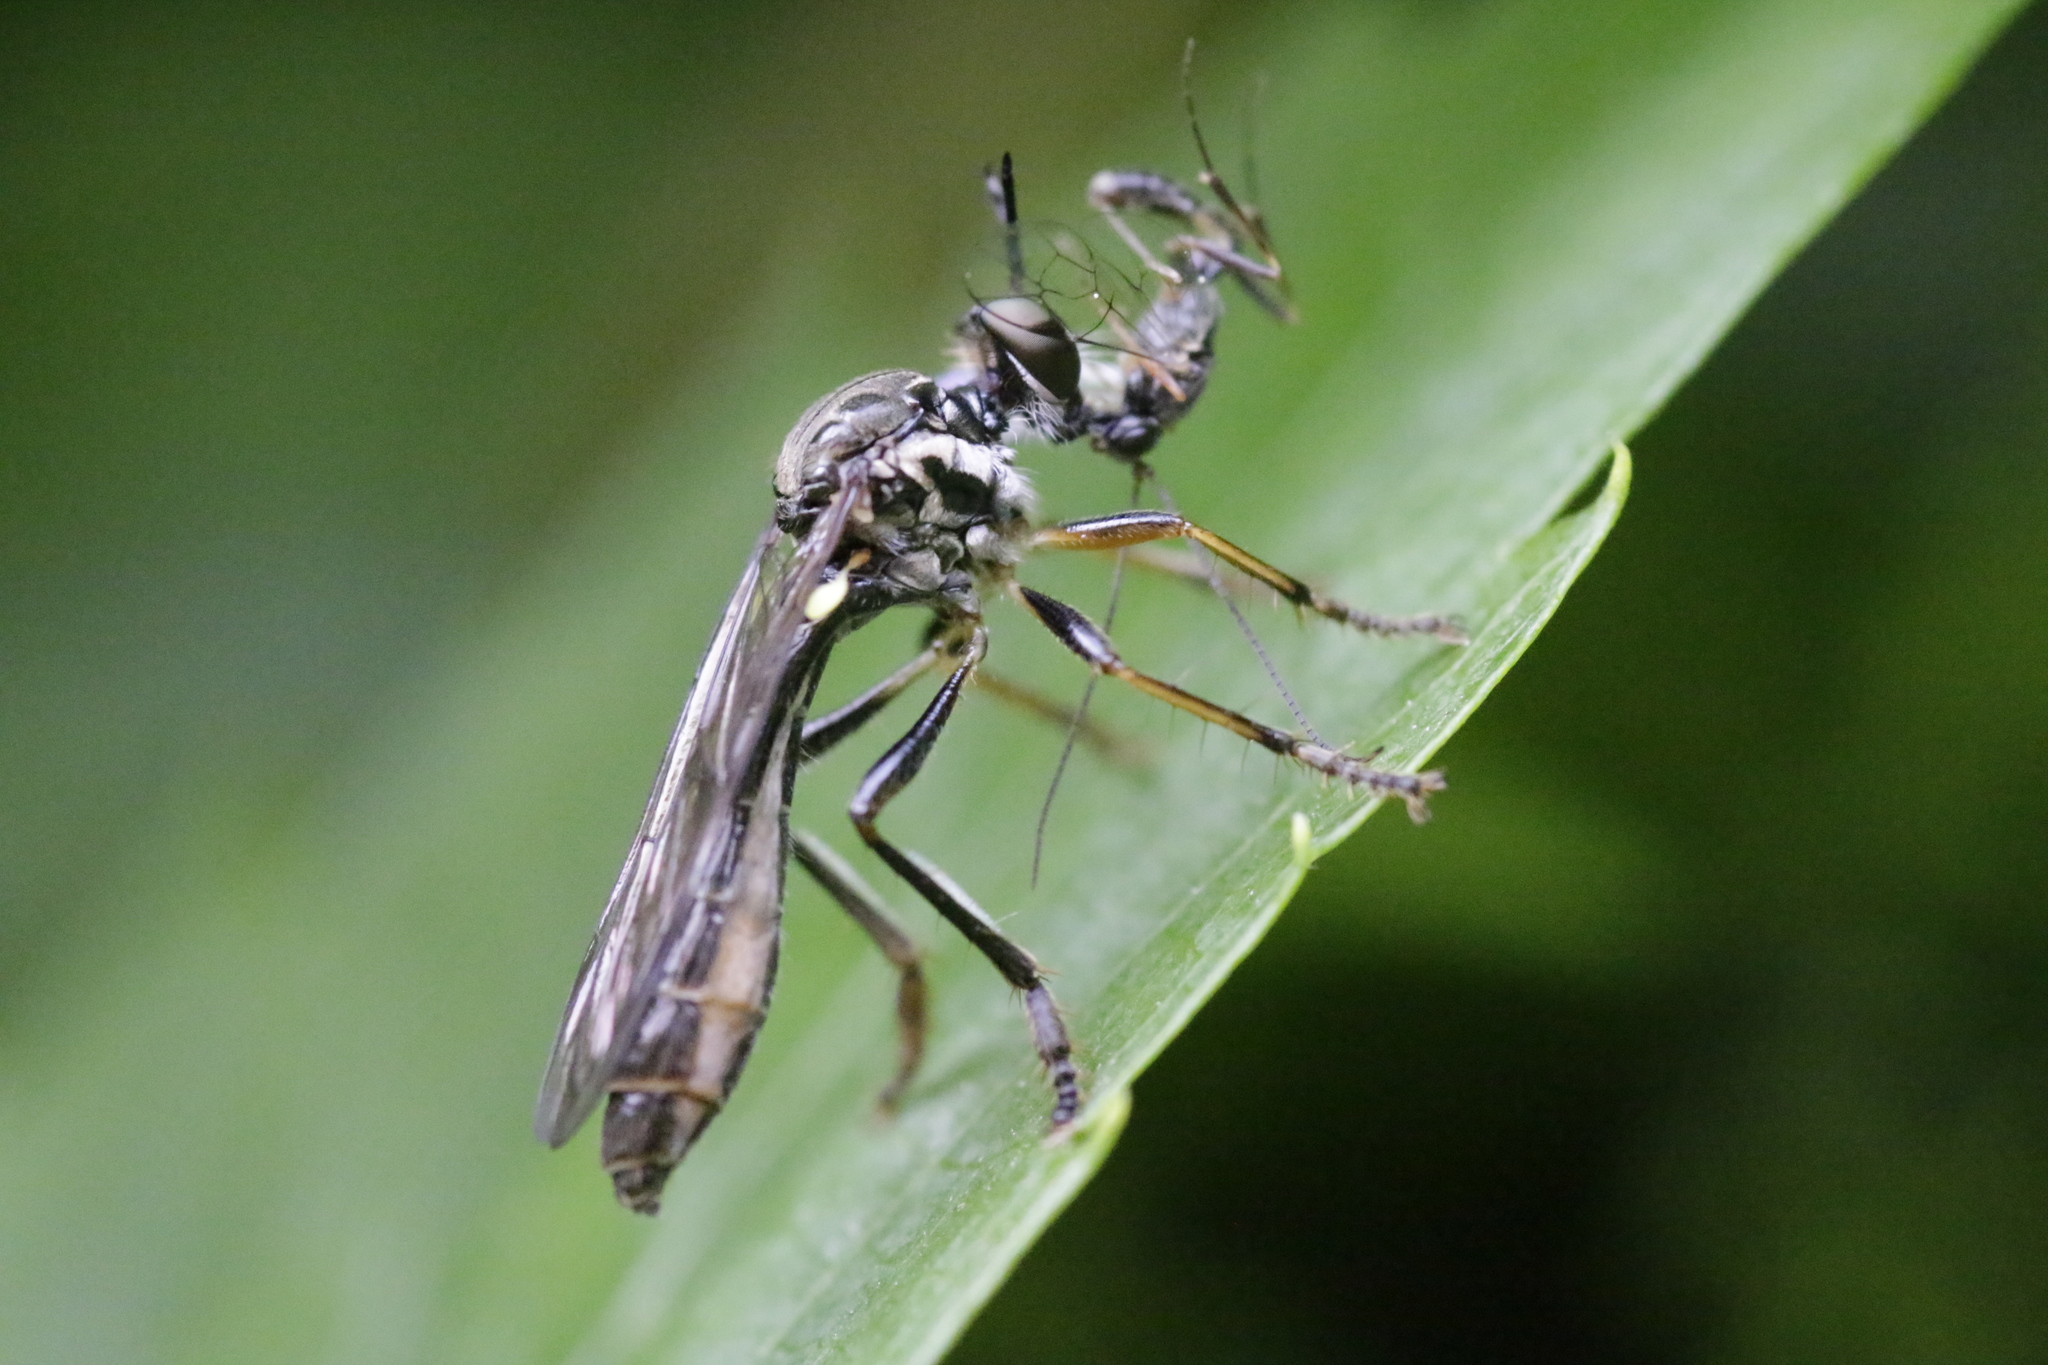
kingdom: Animalia
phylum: Arthropoda
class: Insecta
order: Diptera
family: Asilidae
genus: Dioctria
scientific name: Dioctria hyalipennis
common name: Stripe-legged robberfly
